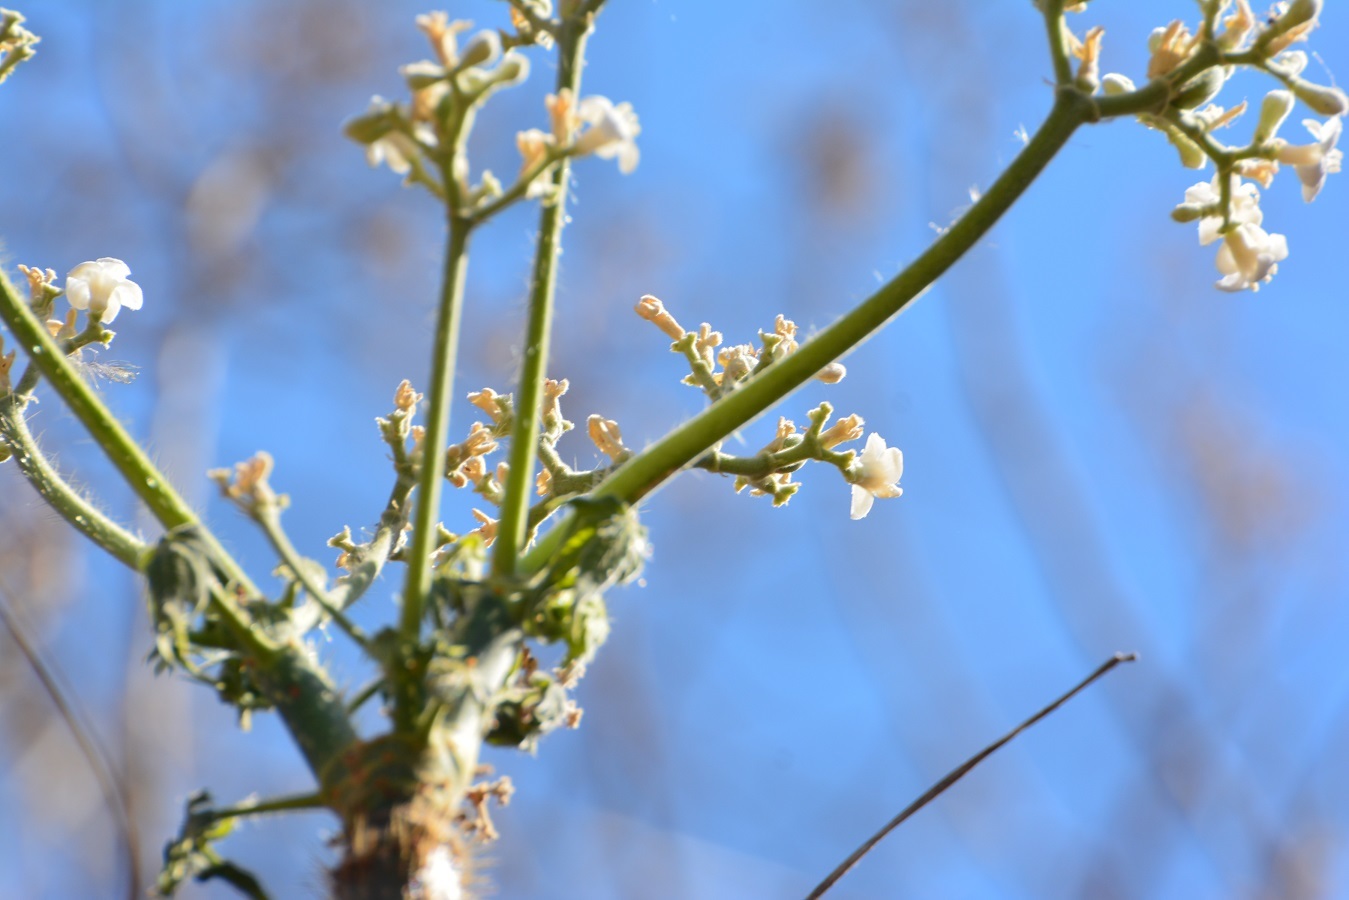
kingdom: Plantae
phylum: Tracheophyta
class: Magnoliopsida
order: Malpighiales
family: Euphorbiaceae
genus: Cnidoscolus
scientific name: Cnidoscolus aconitifolius
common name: Cabbage-star
